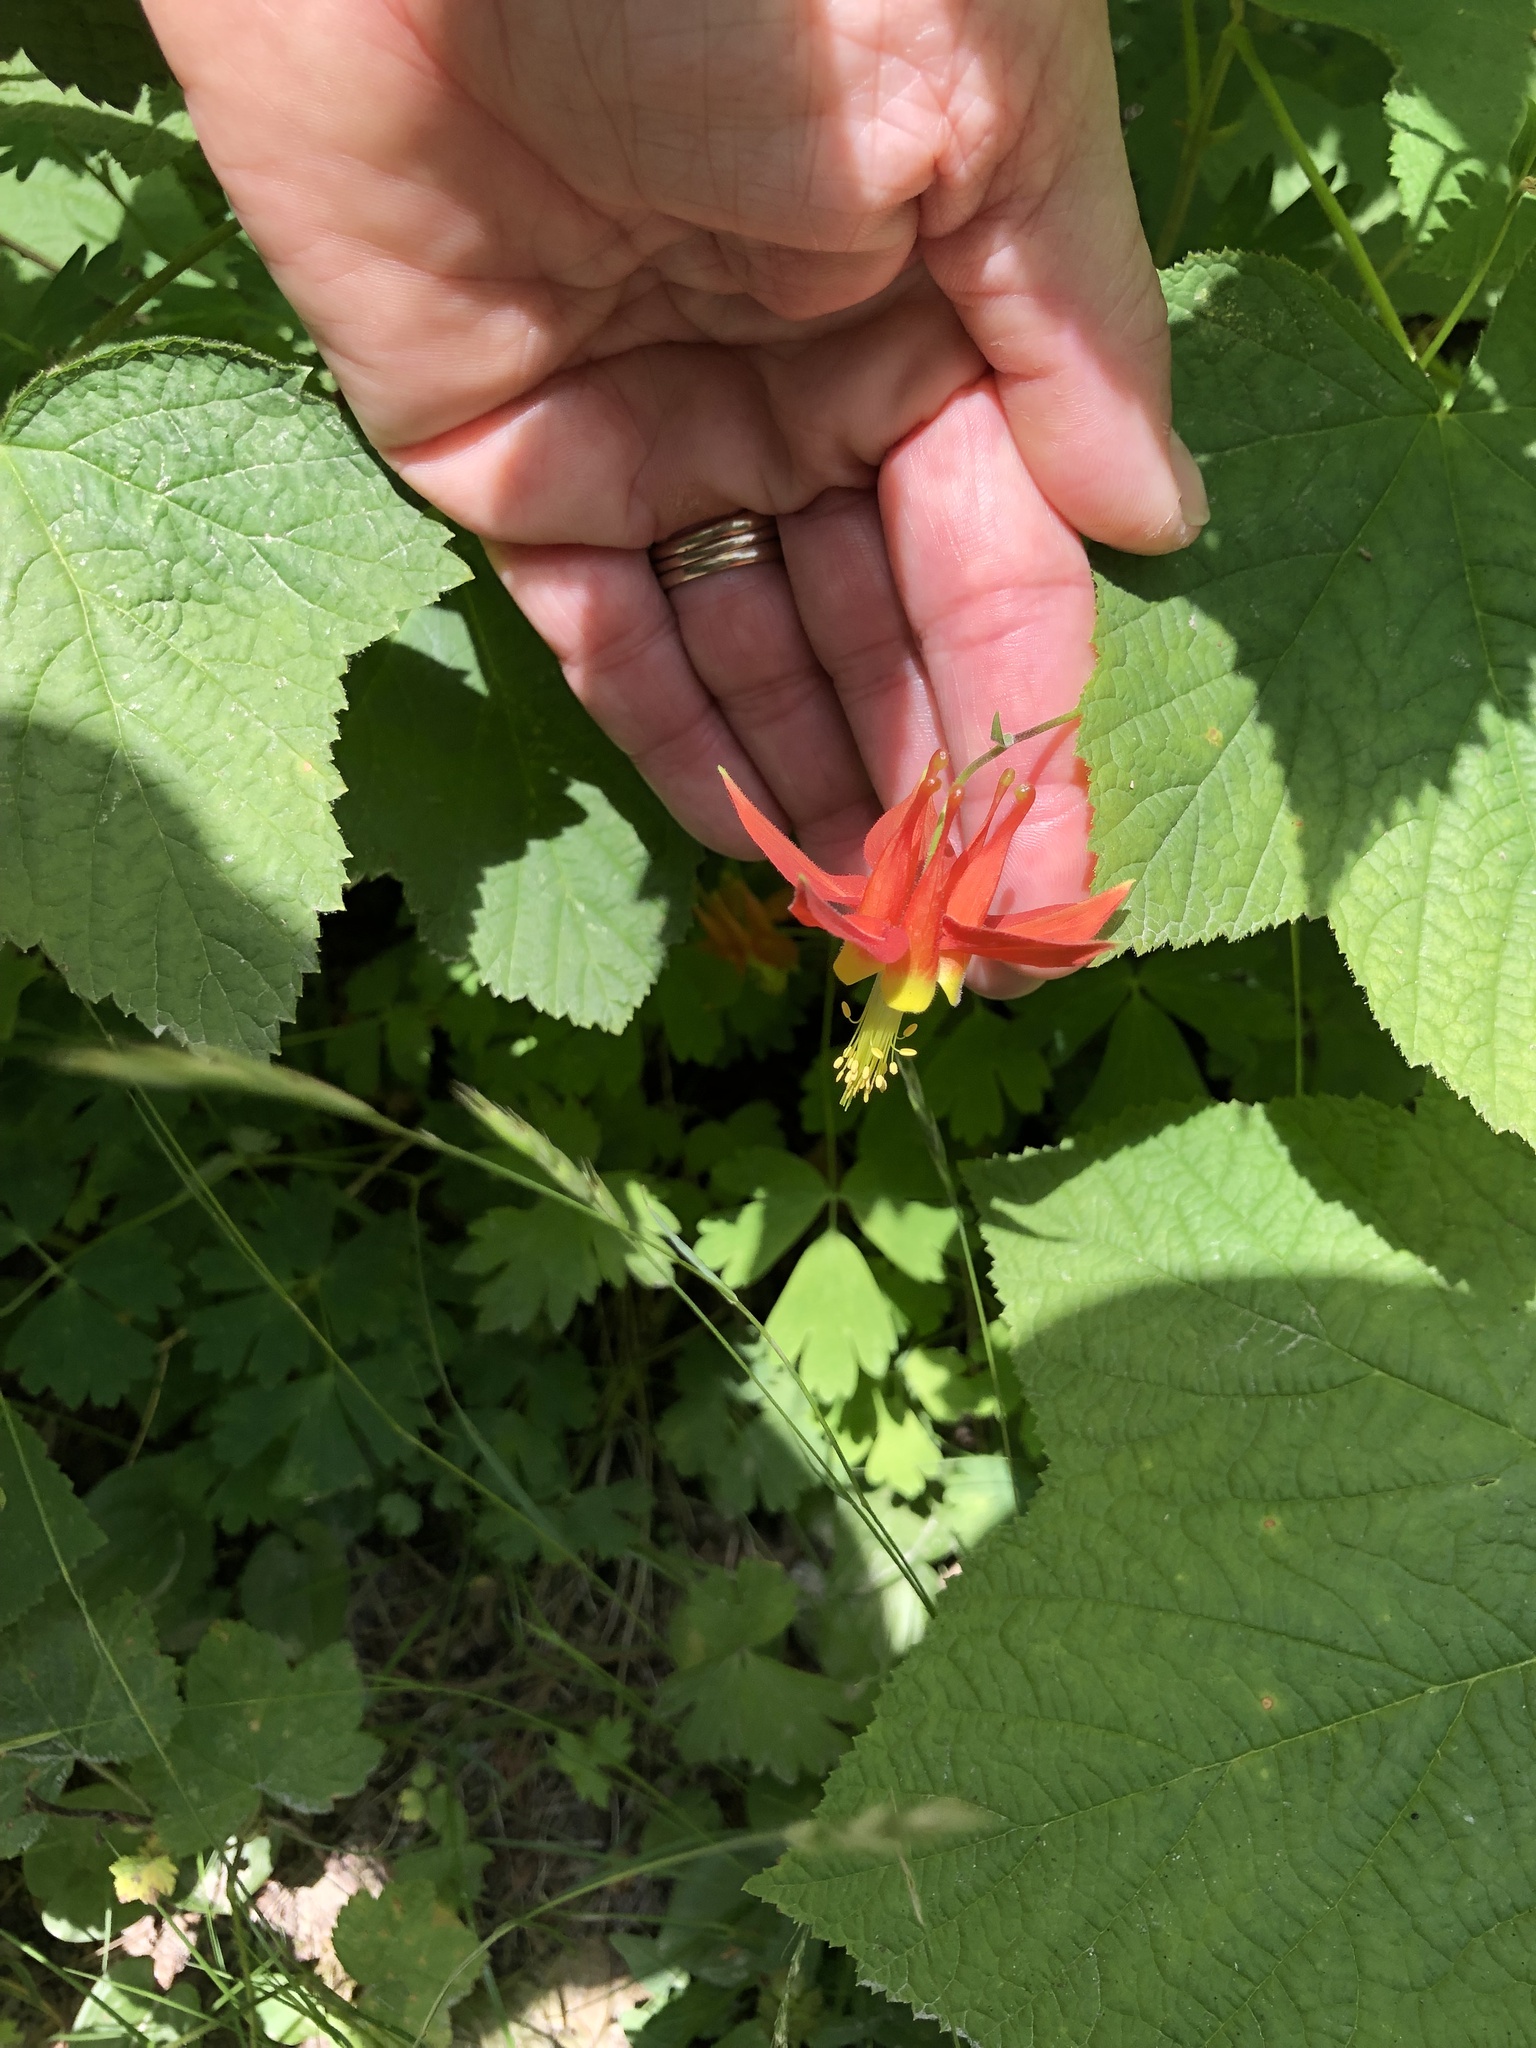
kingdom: Plantae
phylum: Tracheophyta
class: Magnoliopsida
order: Ranunculales
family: Ranunculaceae
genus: Aquilegia
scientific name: Aquilegia formosa
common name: Sitka columbine
